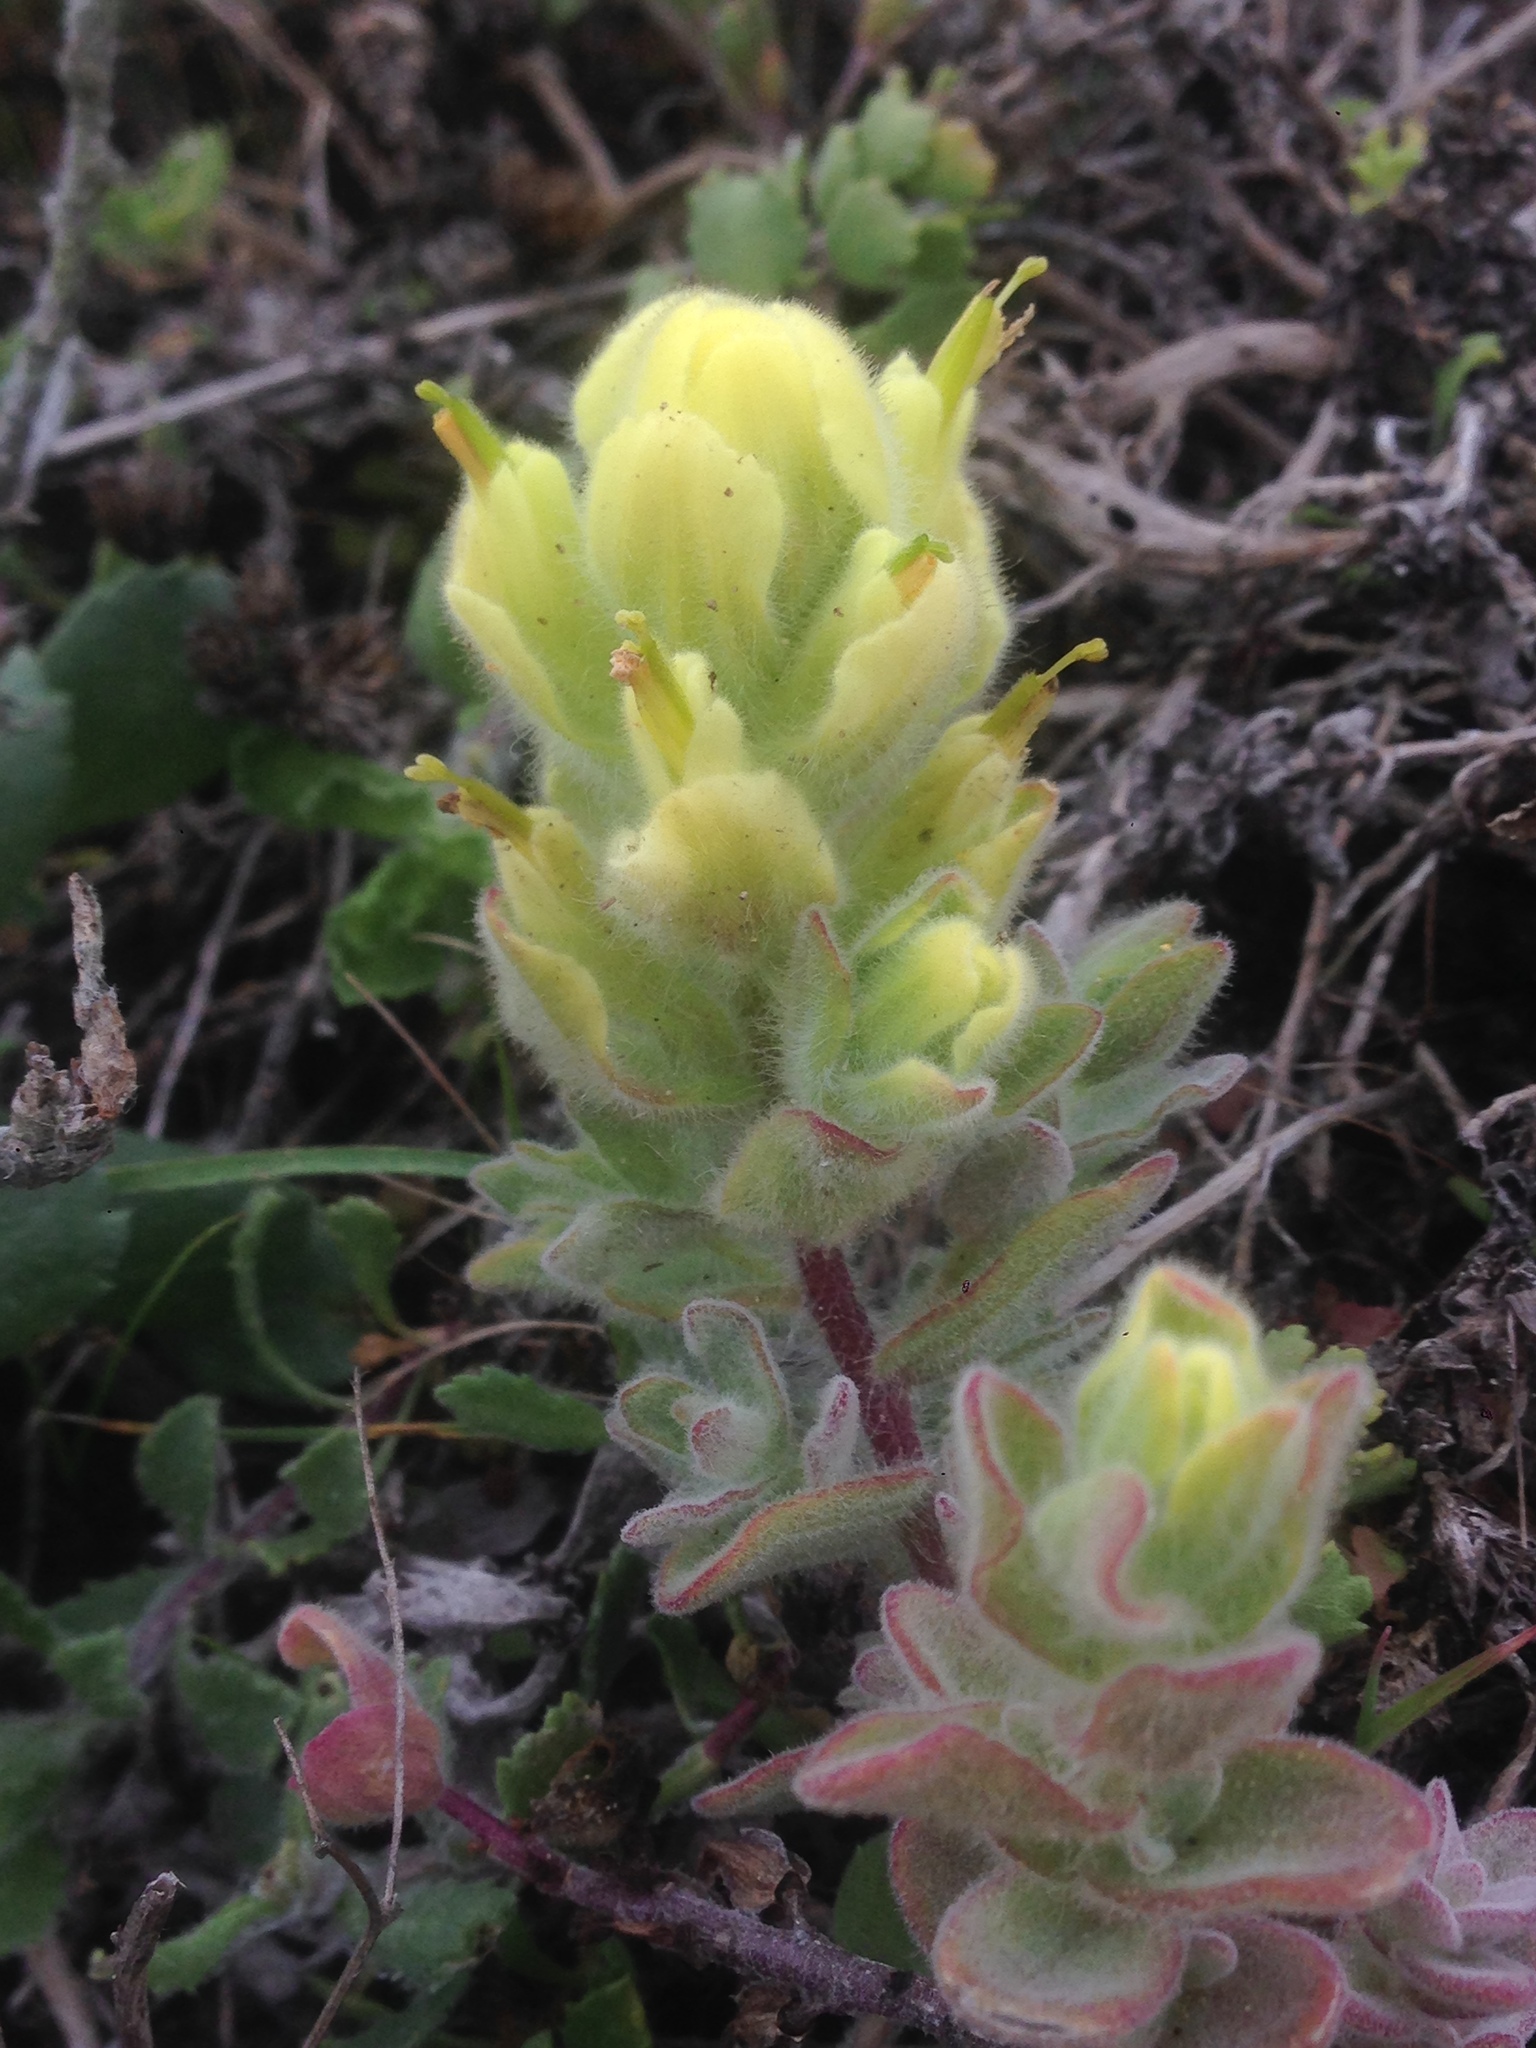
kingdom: Plantae
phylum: Tracheophyta
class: Magnoliopsida
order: Lamiales
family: Orobanchaceae
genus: Castilleja
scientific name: Castilleja mollis
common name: Soft-leaf paintbrush
